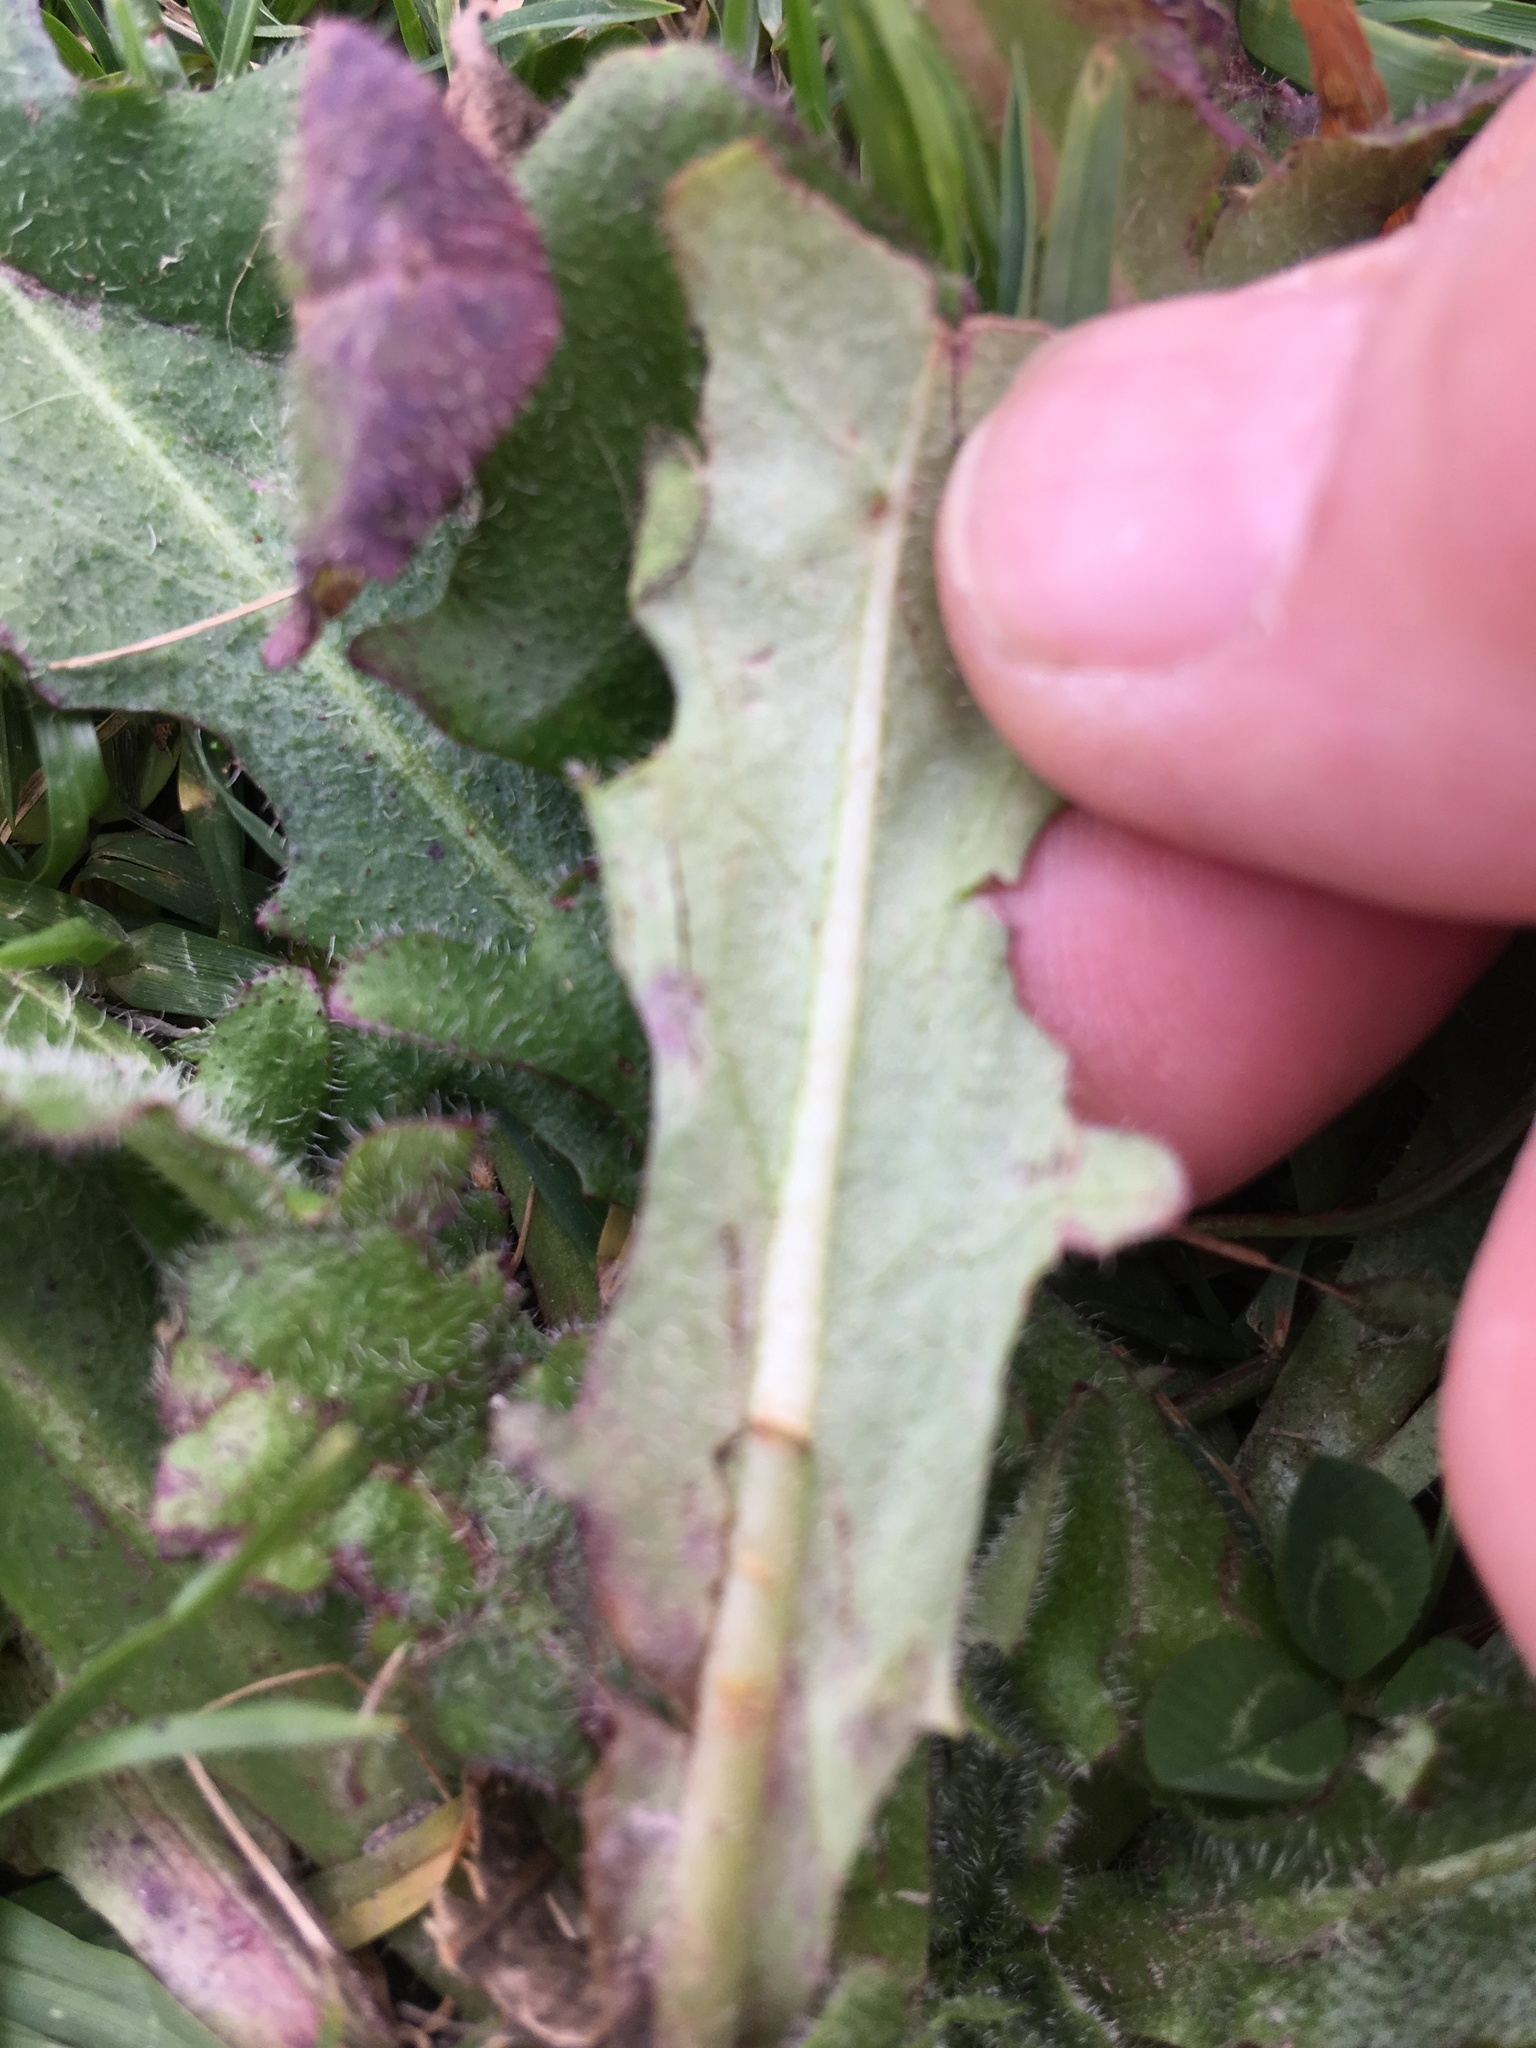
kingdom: Plantae
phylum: Tracheophyta
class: Magnoliopsida
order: Asterales
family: Asteraceae
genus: Hypochaeris
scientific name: Hypochaeris radicata
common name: Flatweed
